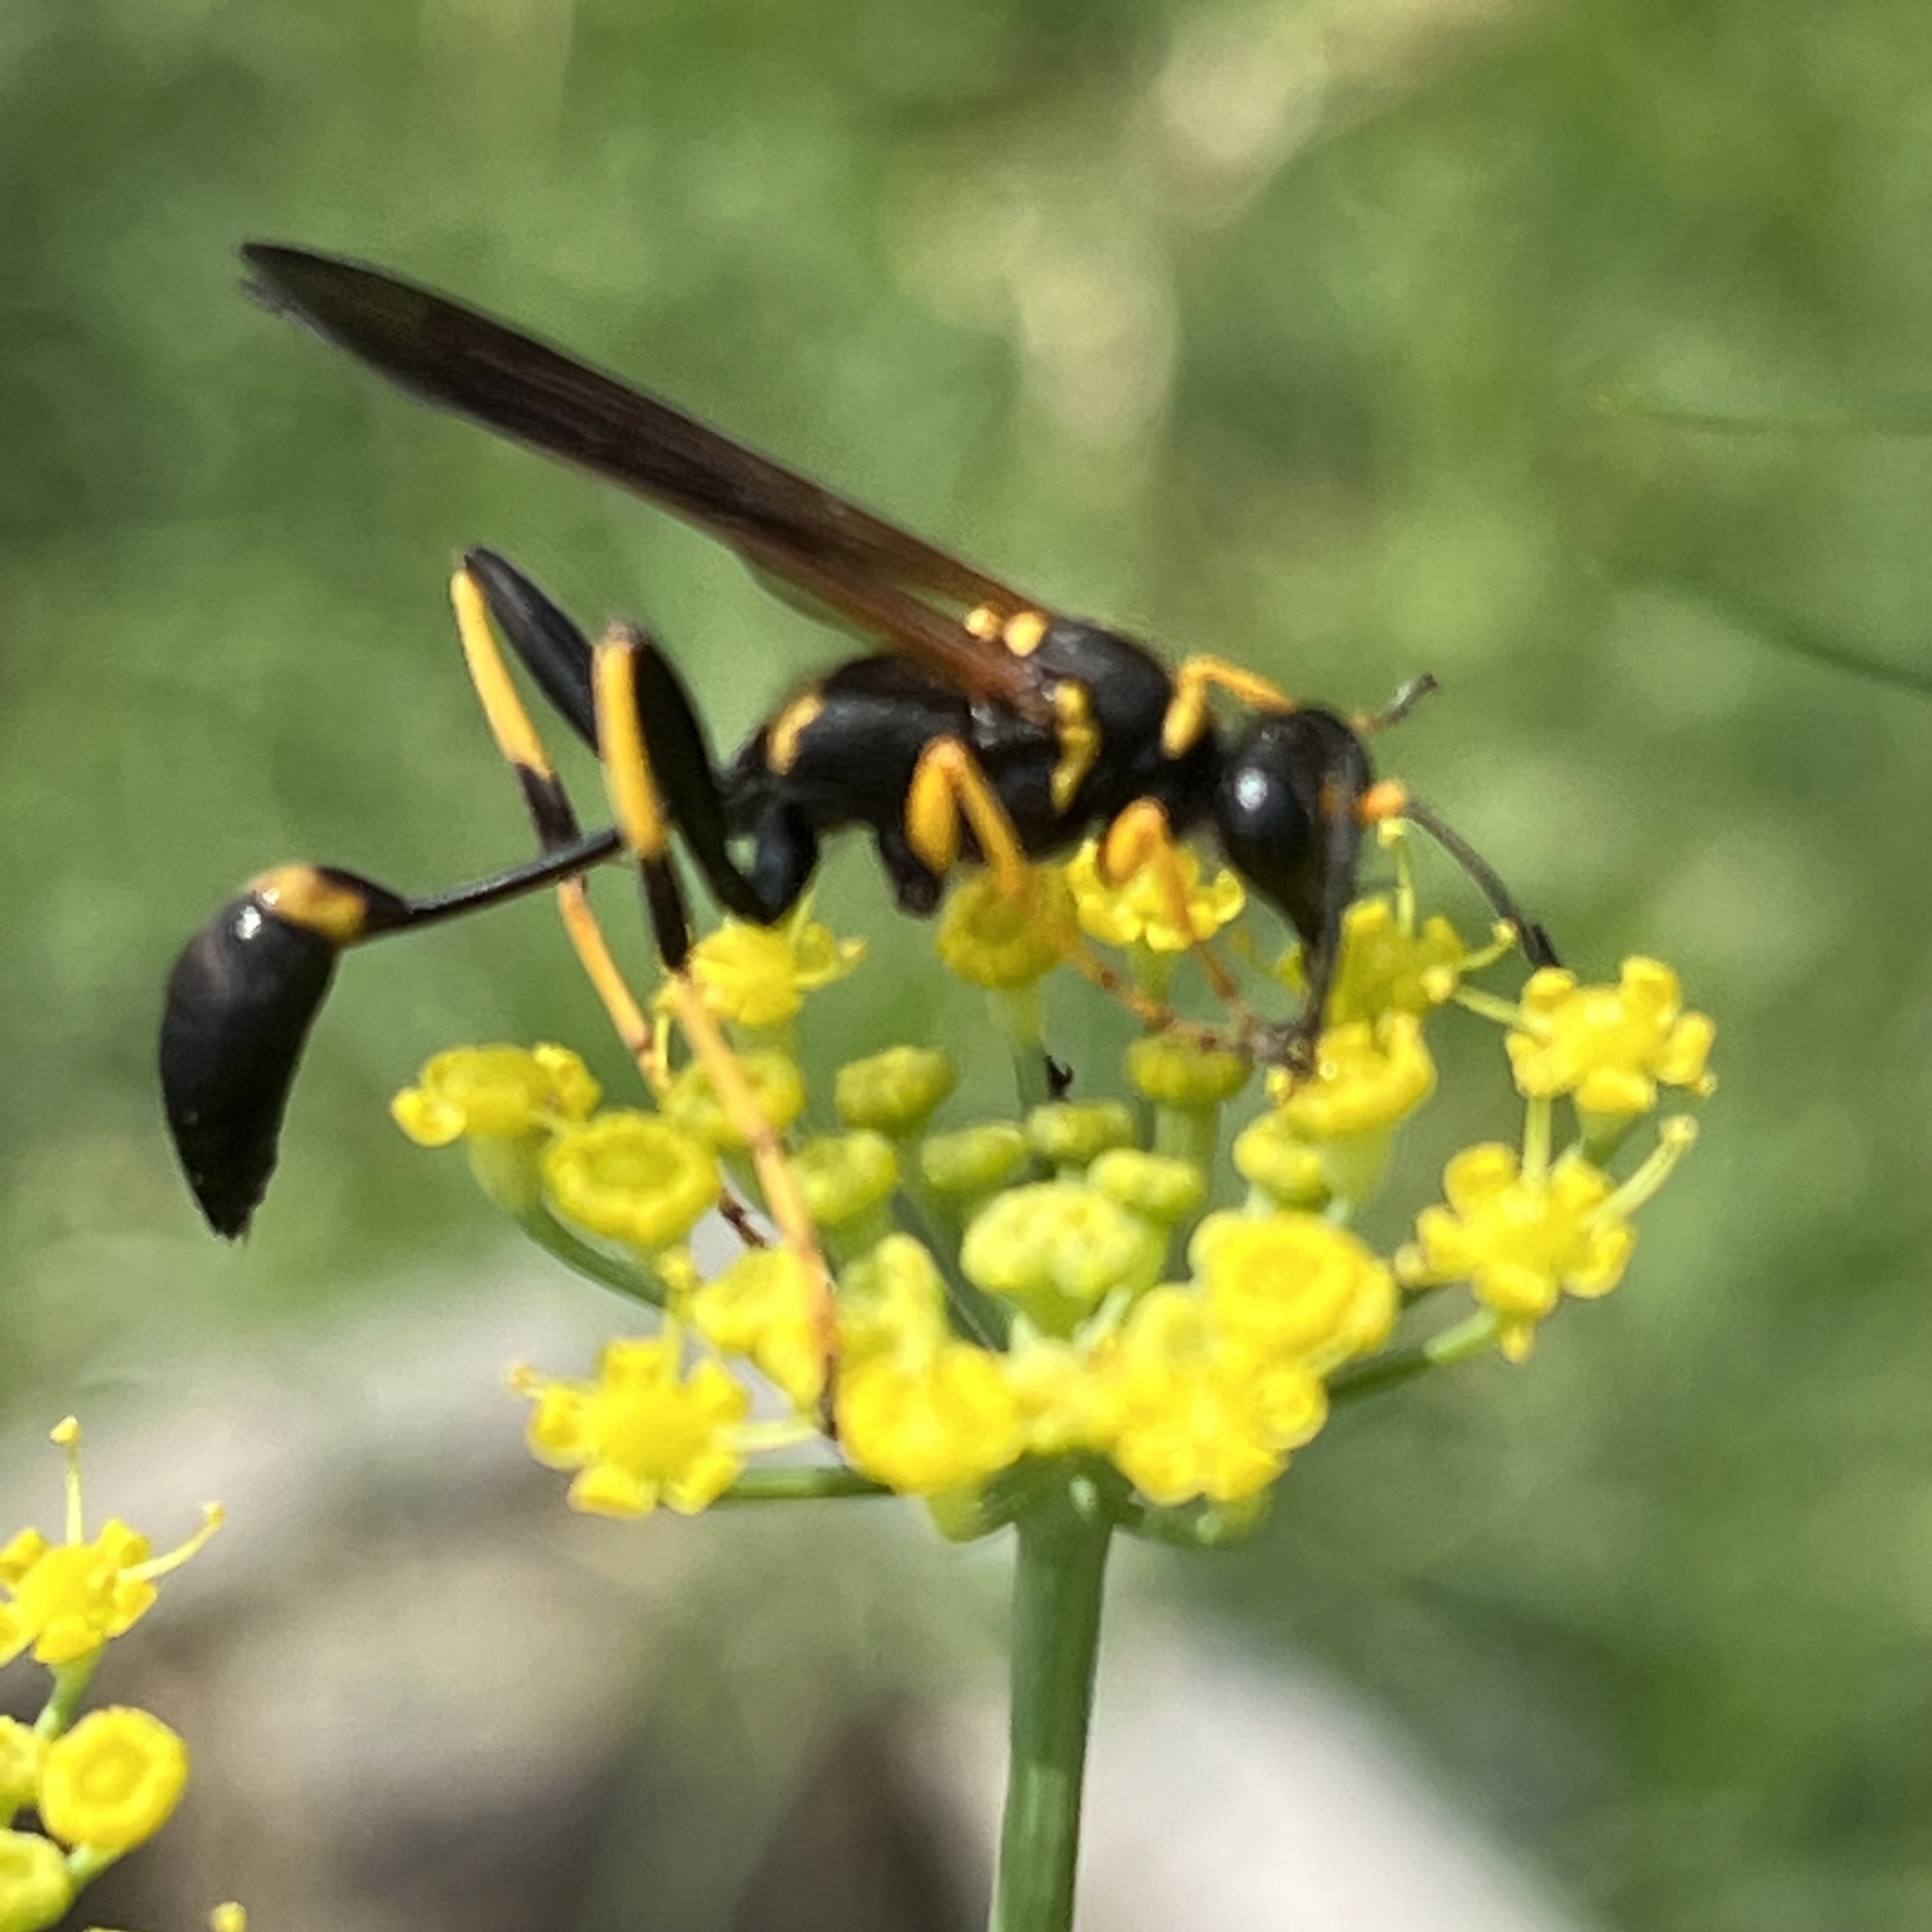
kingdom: Animalia
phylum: Arthropoda
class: Insecta
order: Hymenoptera
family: Sphecidae
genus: Sceliphron
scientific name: Sceliphron caementarium
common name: Mud dauber
